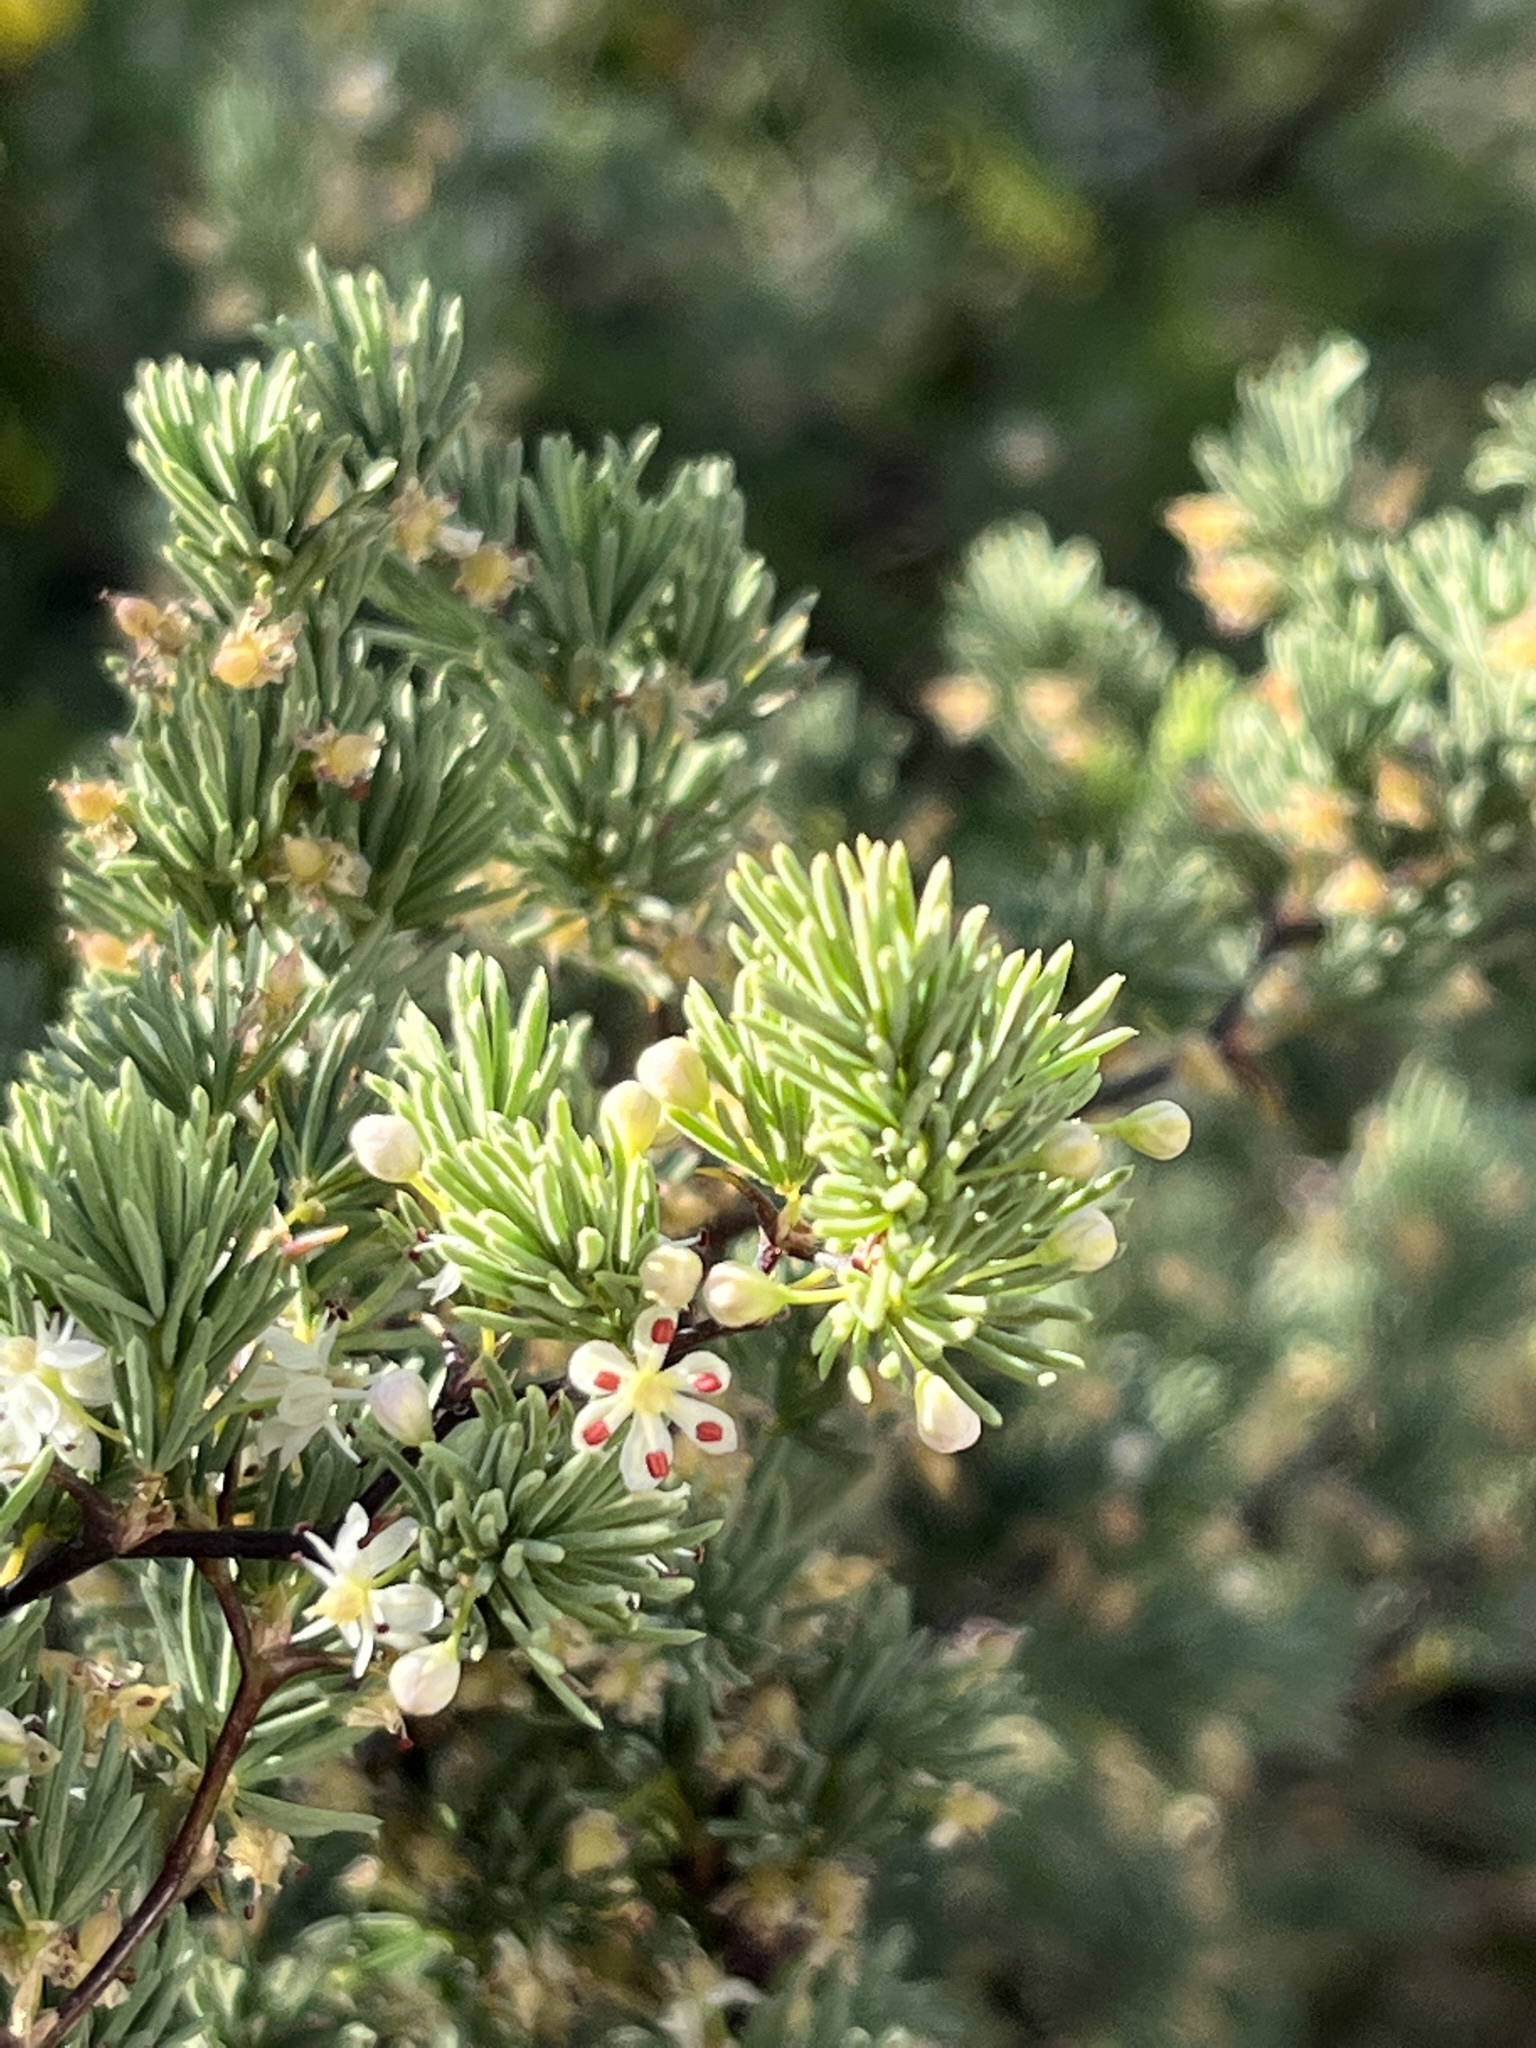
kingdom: Plantae
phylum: Tracheophyta
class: Liliopsida
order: Asparagales
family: Asparagaceae
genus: Asparagus
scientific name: Asparagus rubicundus
